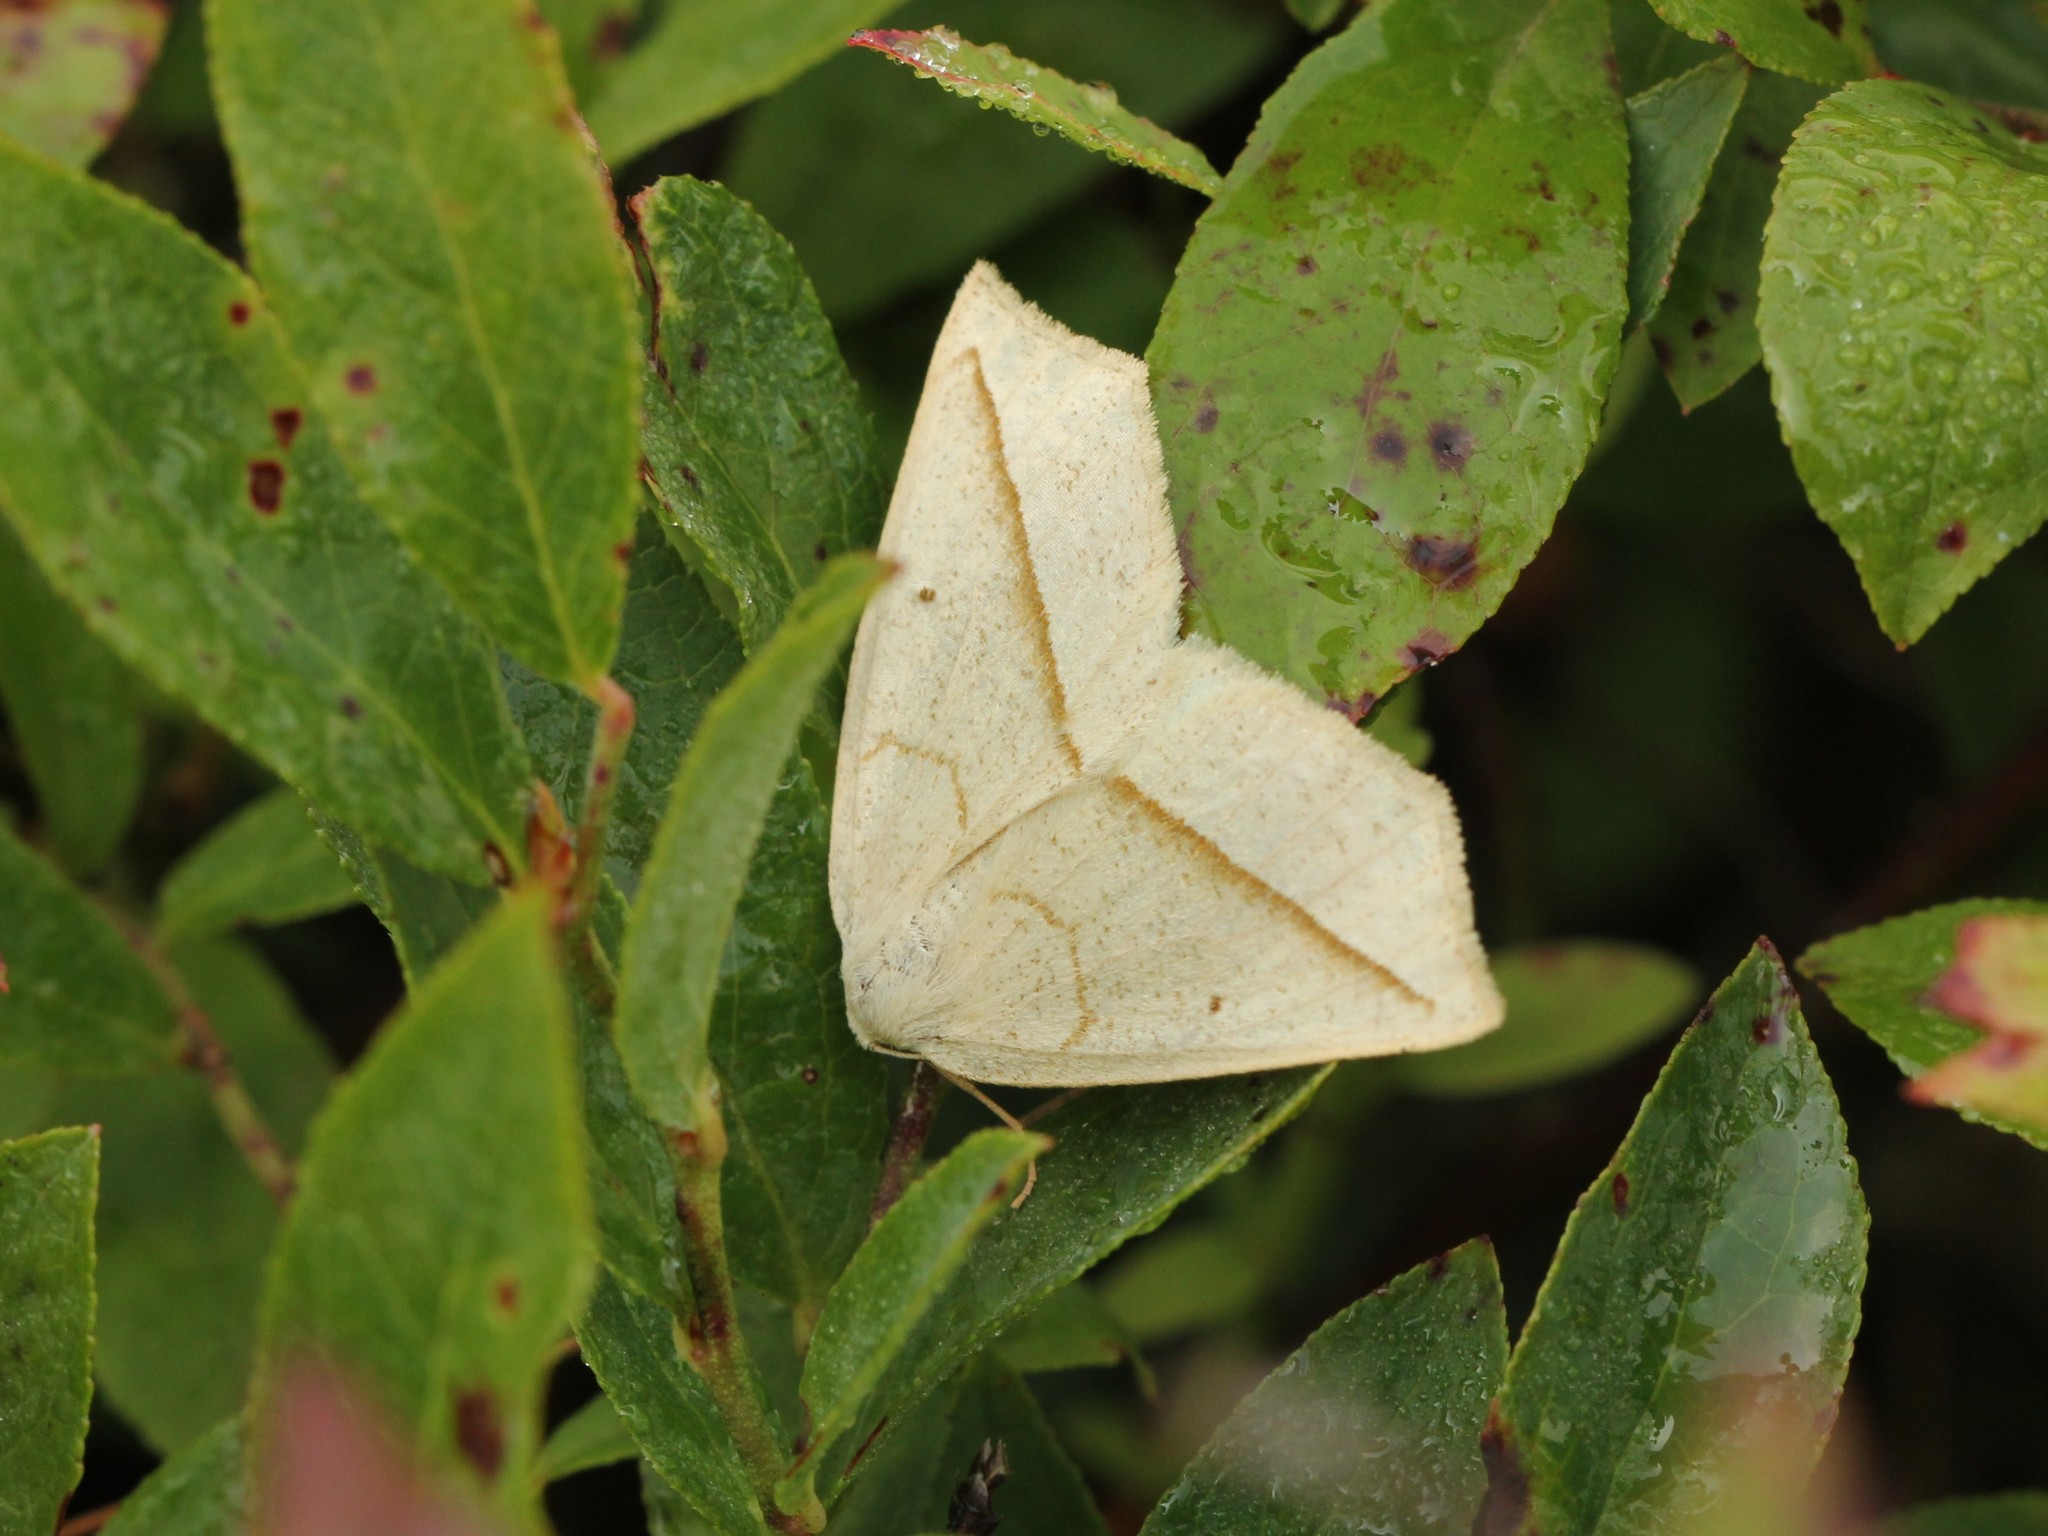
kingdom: Animalia
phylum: Arthropoda
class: Insecta
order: Lepidoptera
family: Geometridae
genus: Eusarca
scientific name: Eusarca confusaria
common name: Confused eusarca
